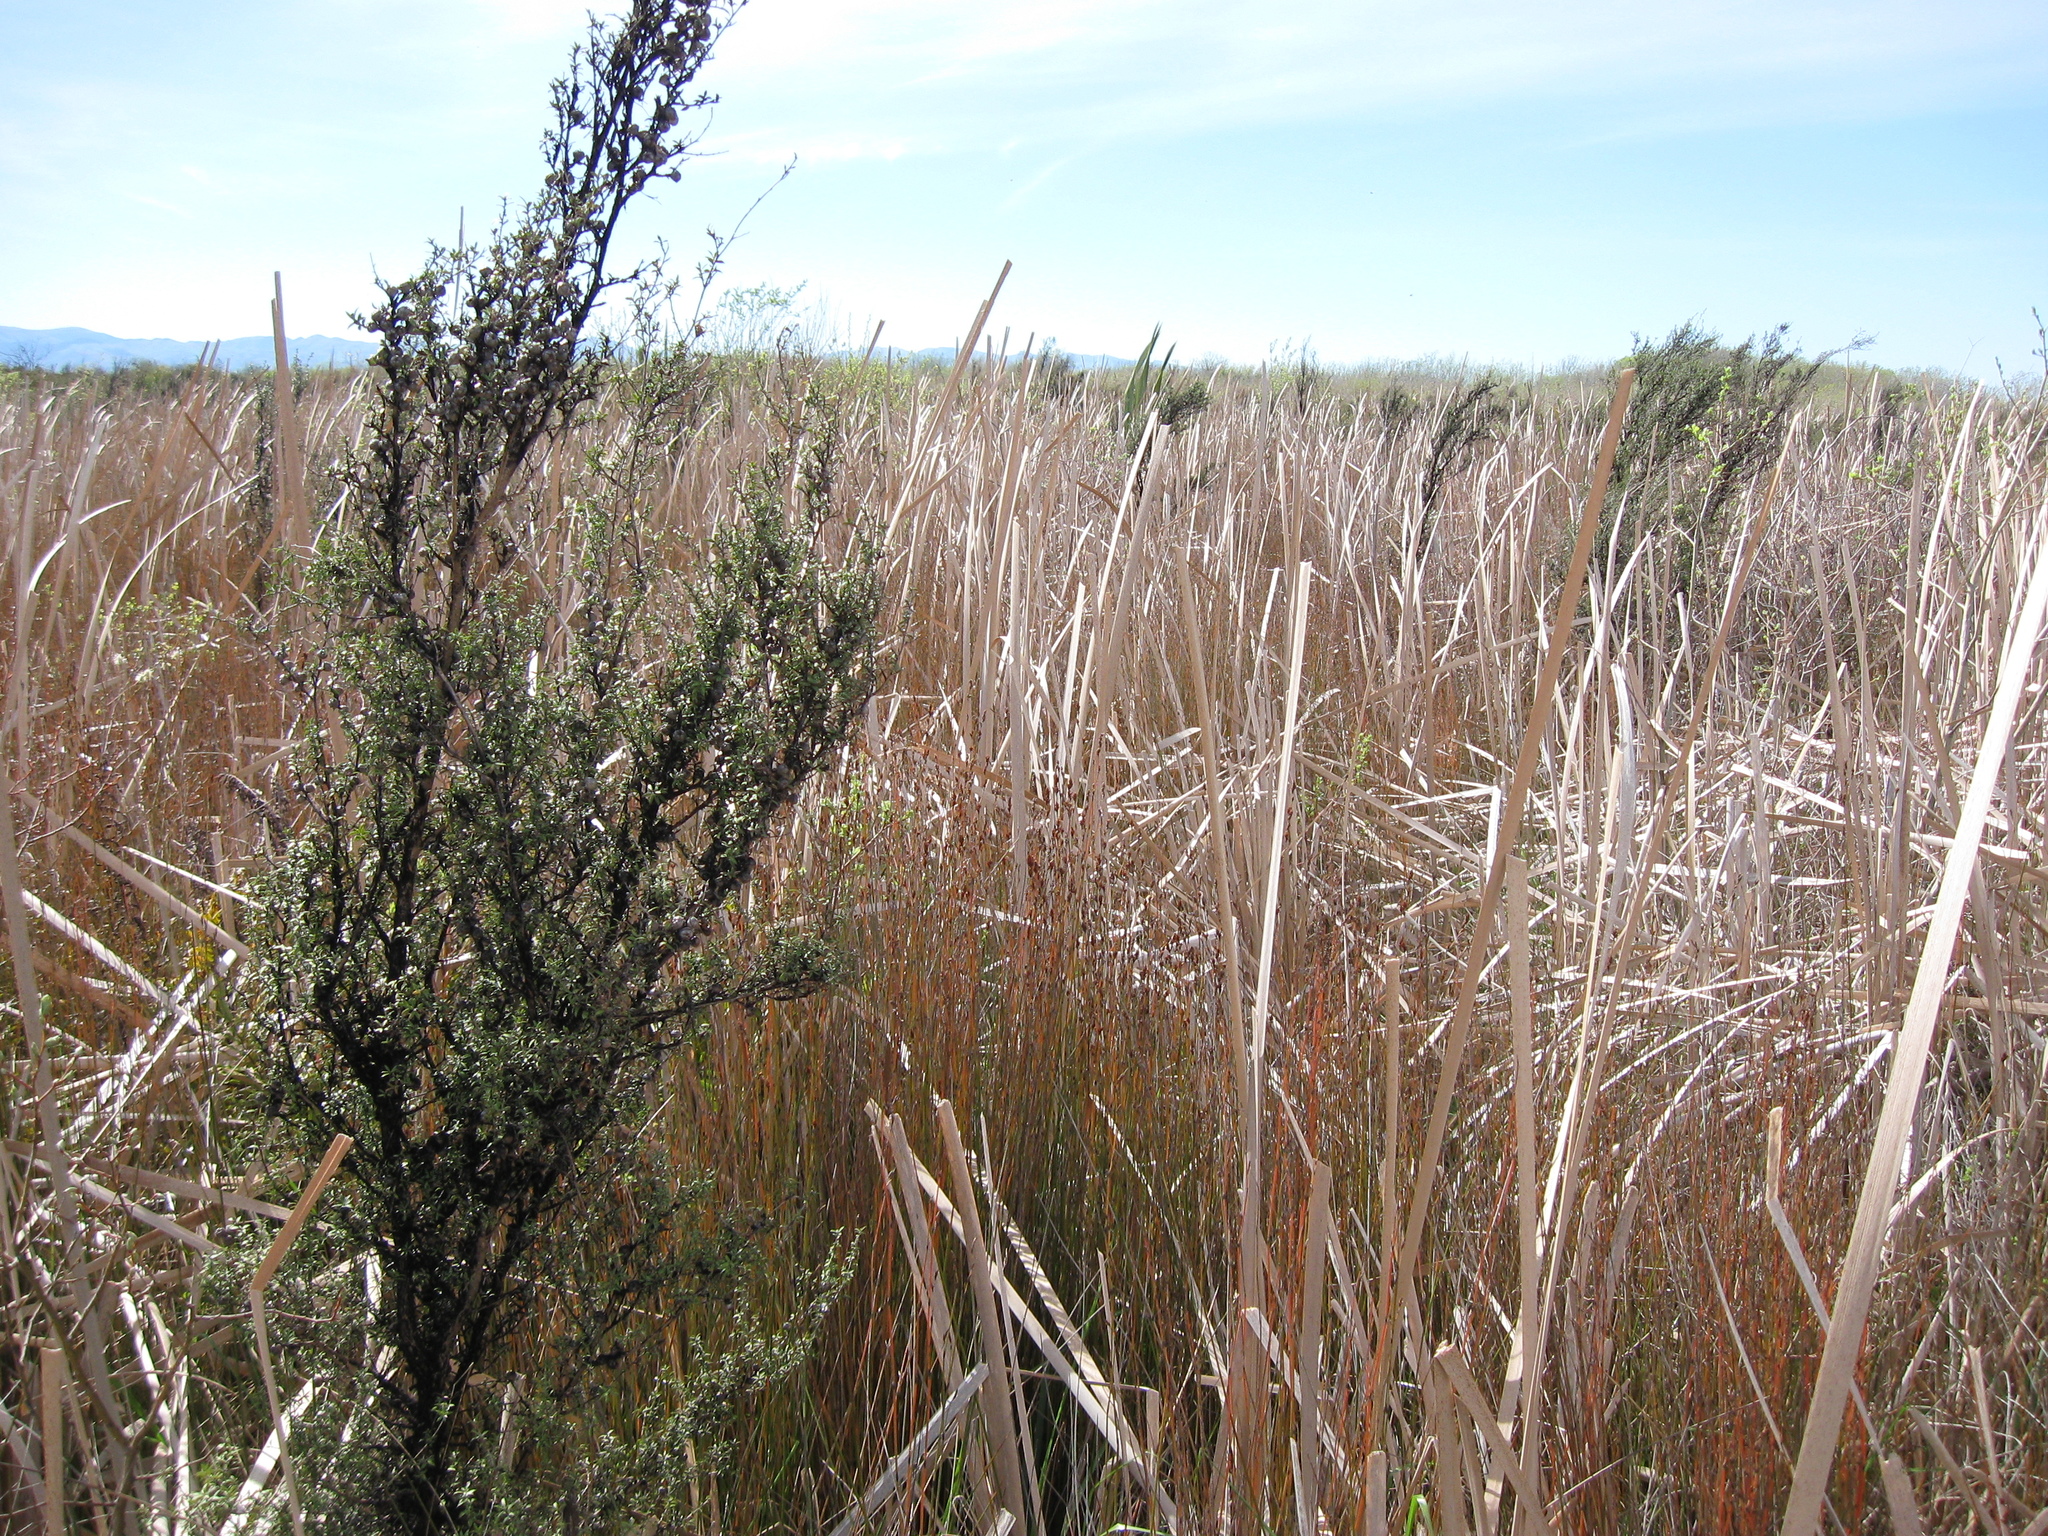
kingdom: Plantae
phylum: Tracheophyta
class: Magnoliopsida
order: Myrtales
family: Myrtaceae
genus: Leptospermum
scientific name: Leptospermum scoparium
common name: Broom tea-tree
